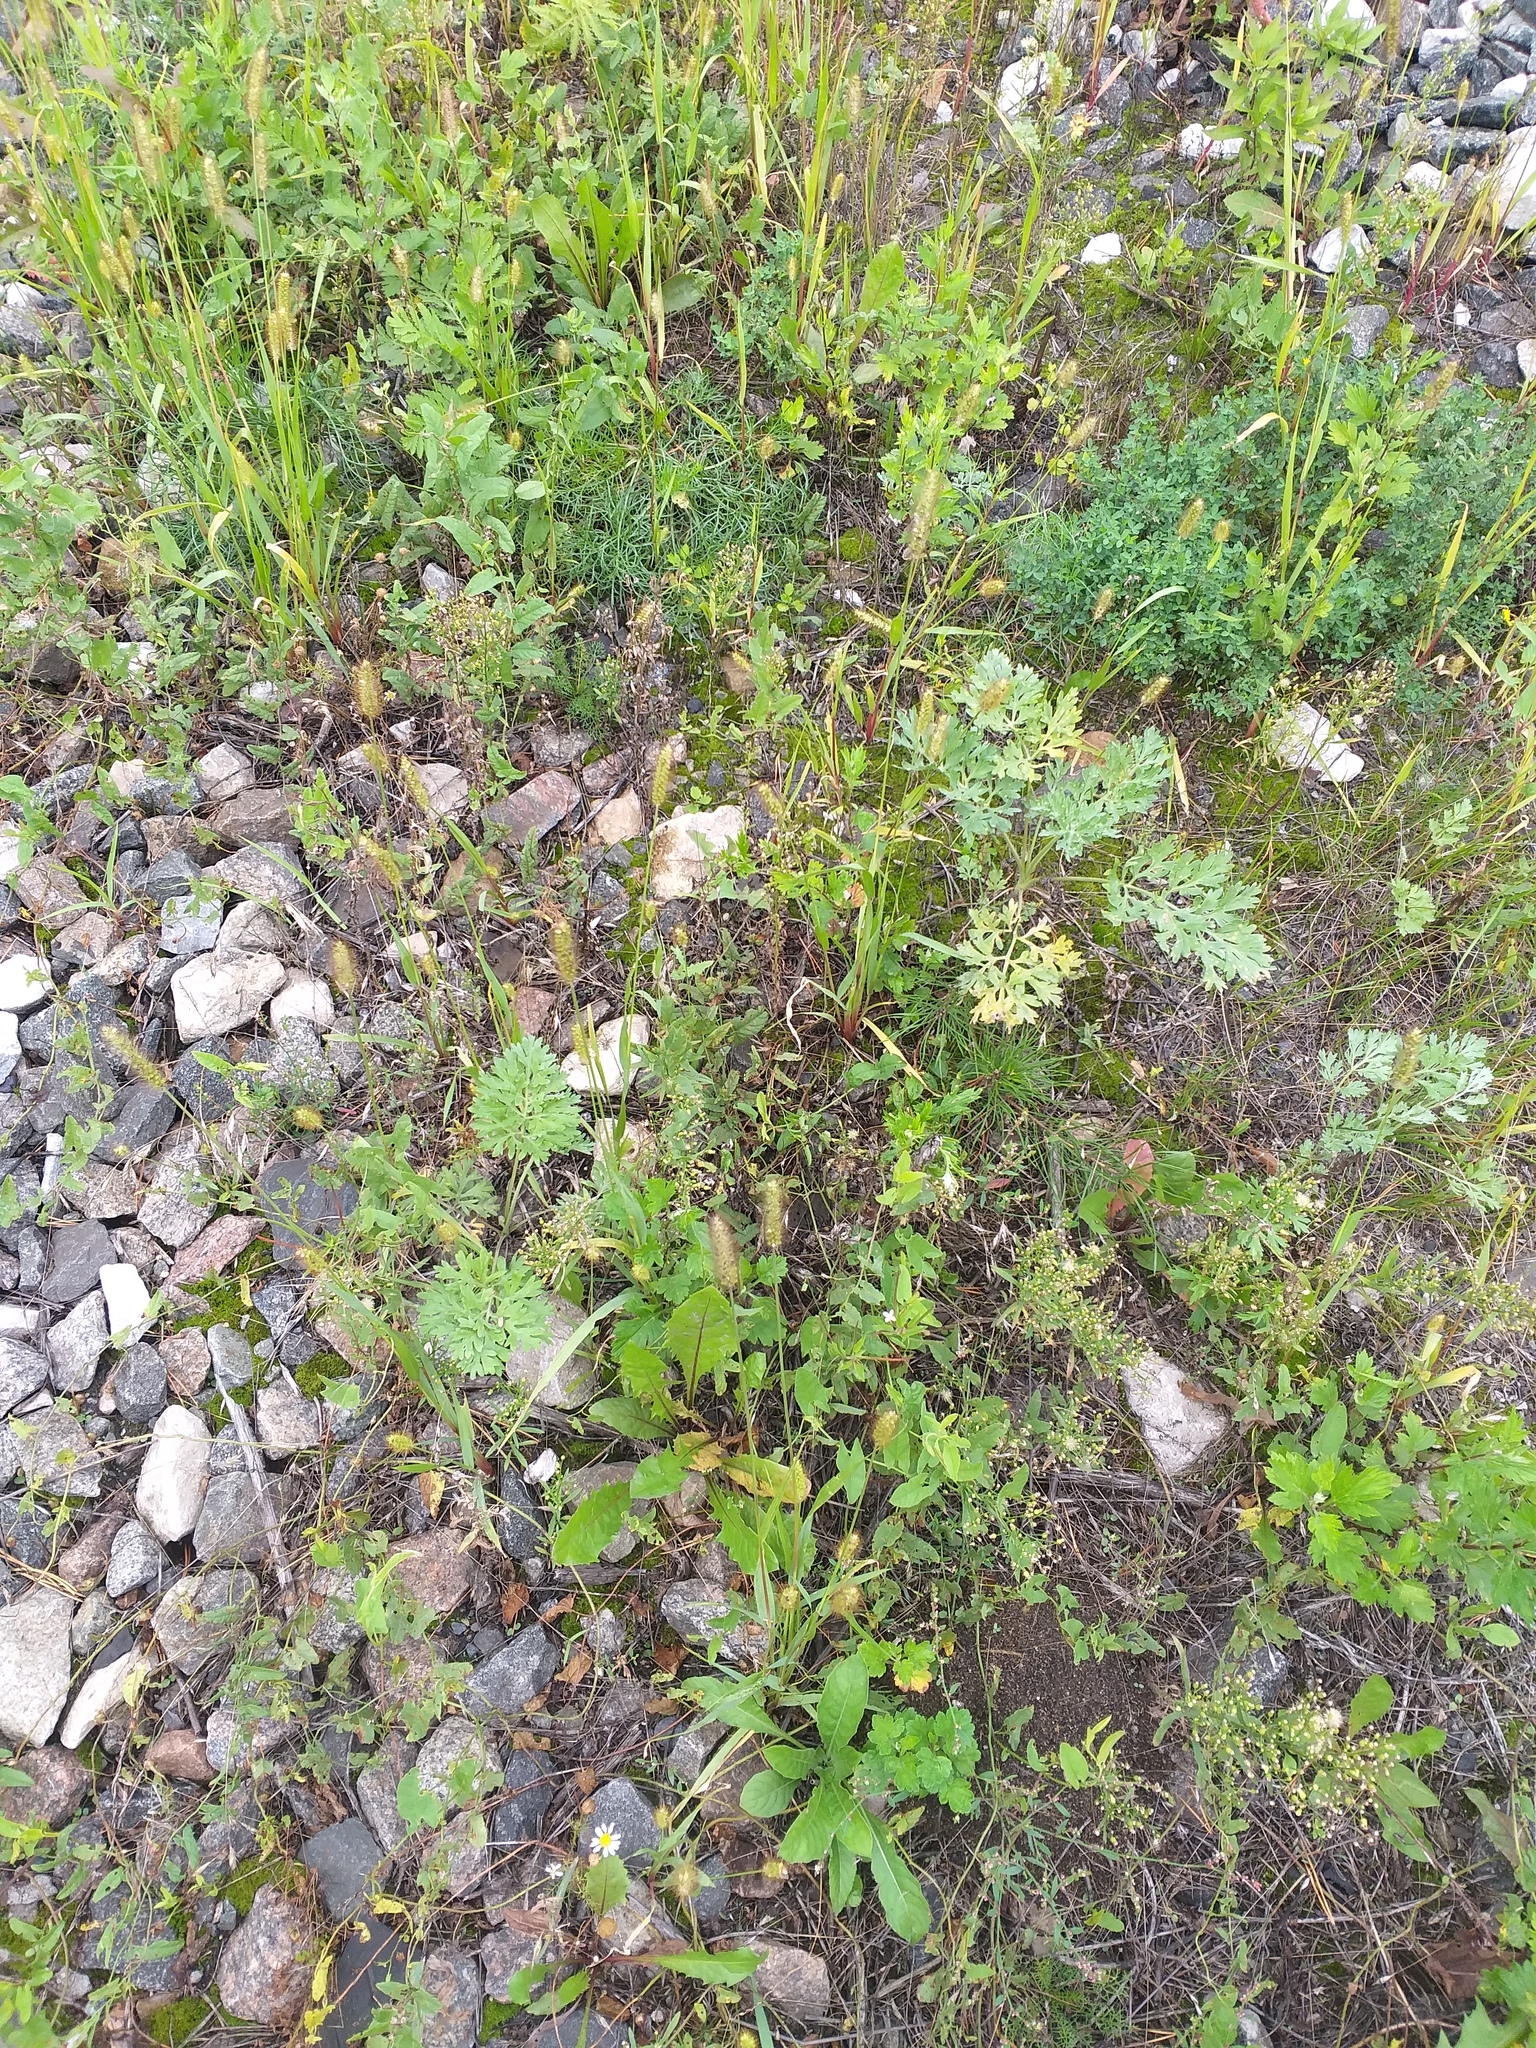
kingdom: Plantae
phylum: Tracheophyta
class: Liliopsida
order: Poales
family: Poaceae
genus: Setaria
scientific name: Setaria pumila
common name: Yellow bristle-grass
